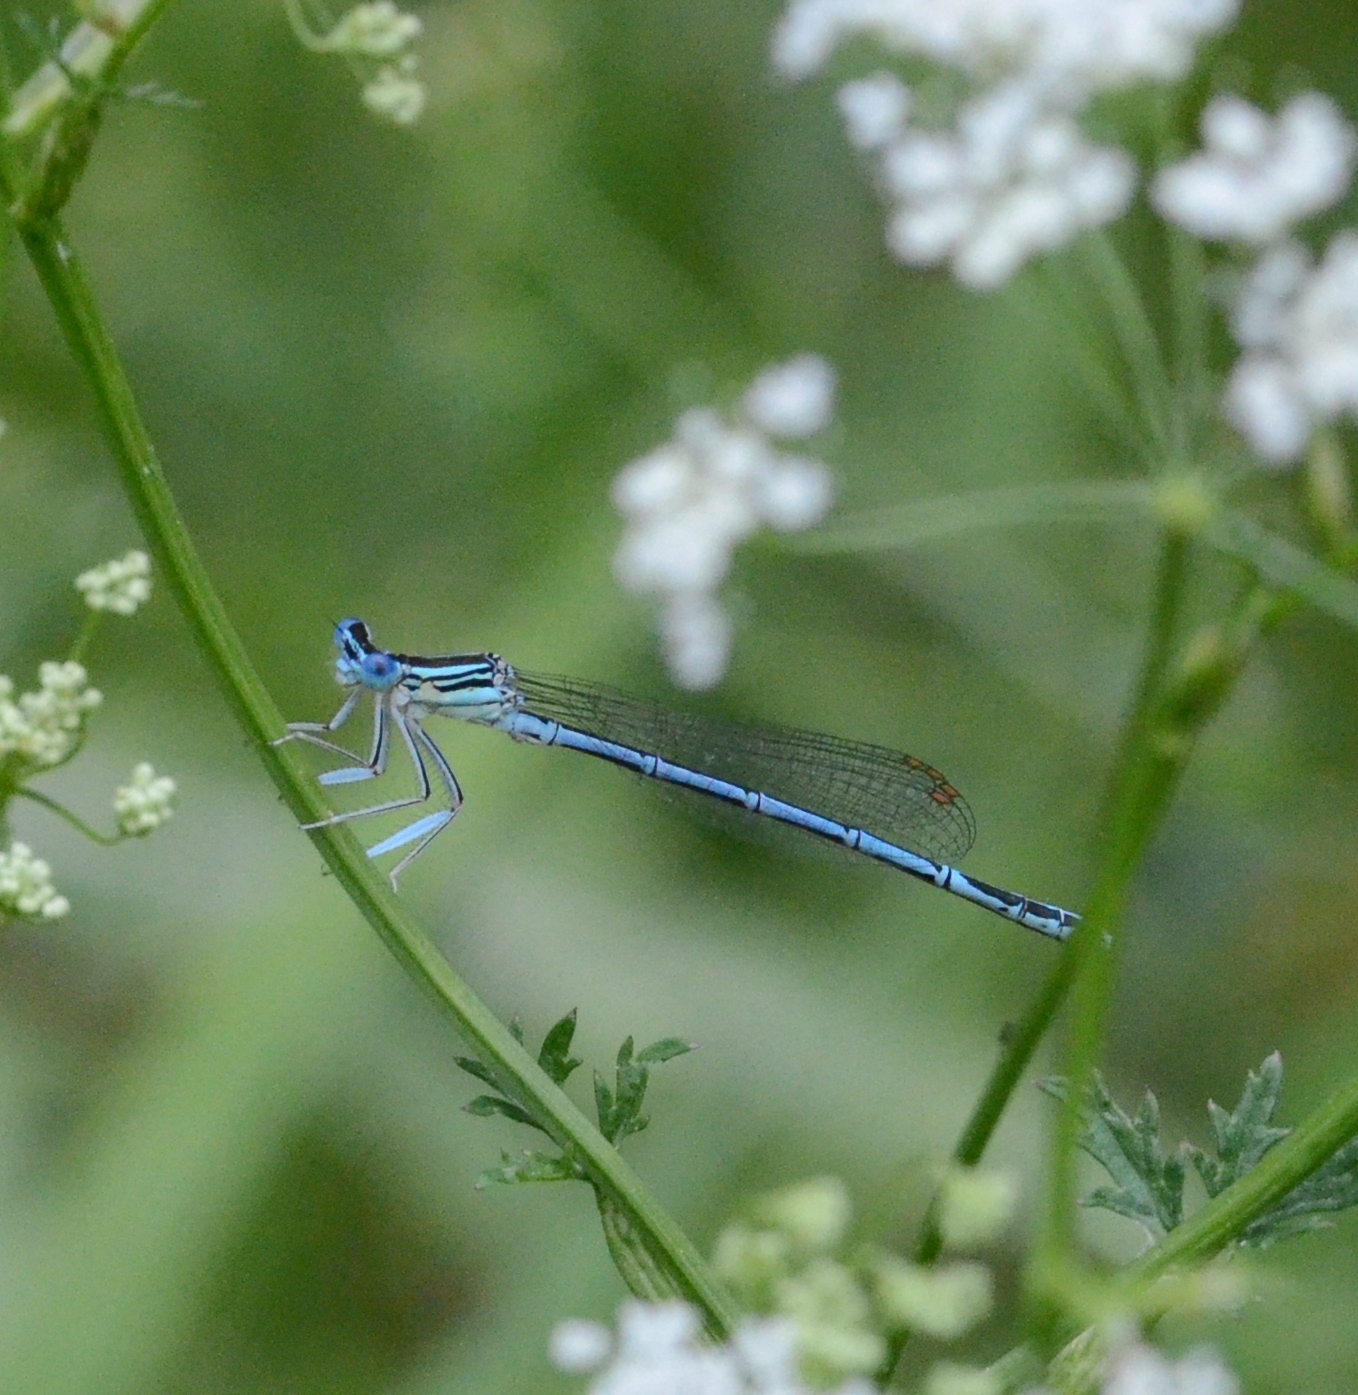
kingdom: Animalia
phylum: Arthropoda
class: Insecta
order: Odonata
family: Platycnemididae
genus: Platycnemis
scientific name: Platycnemis pennipes
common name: White-legged damselfly
